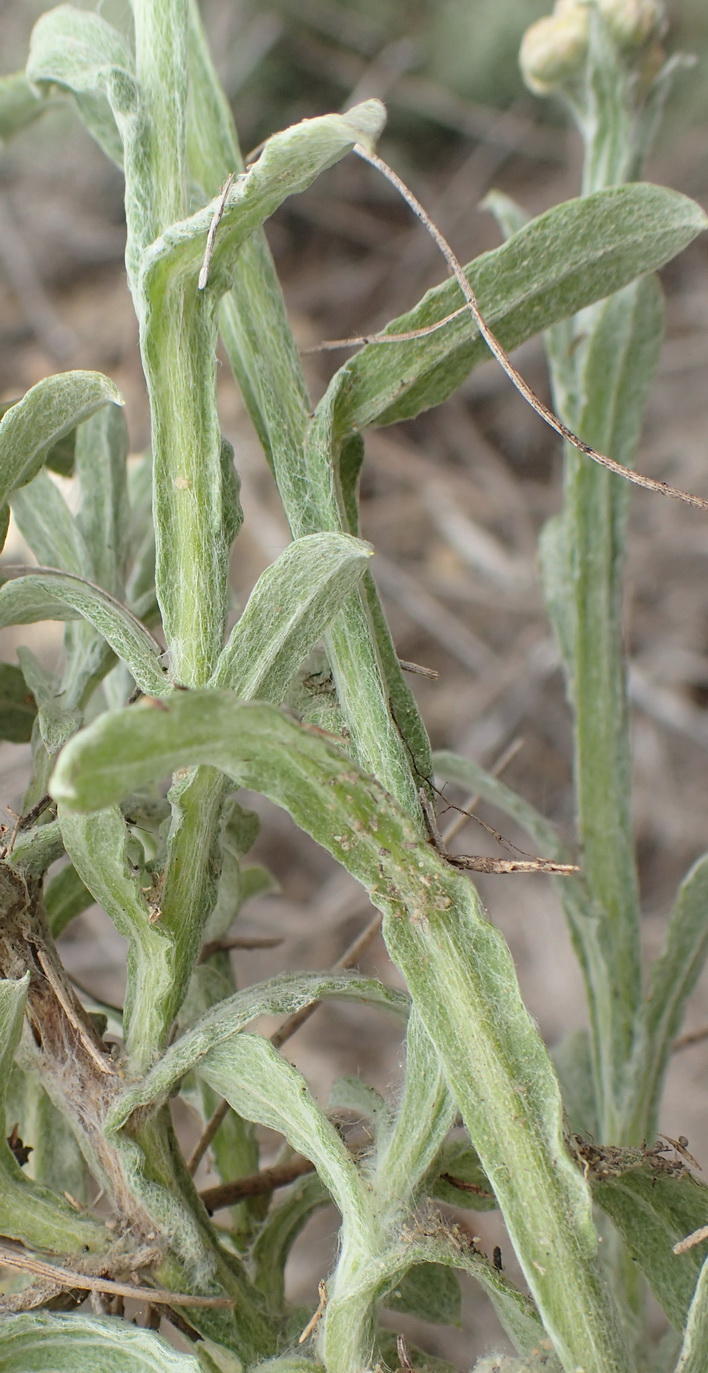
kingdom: Plantae
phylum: Tracheophyta
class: Magnoliopsida
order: Asterales
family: Asteraceae
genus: Helichrysum
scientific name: Helichrysum odoratissimum
